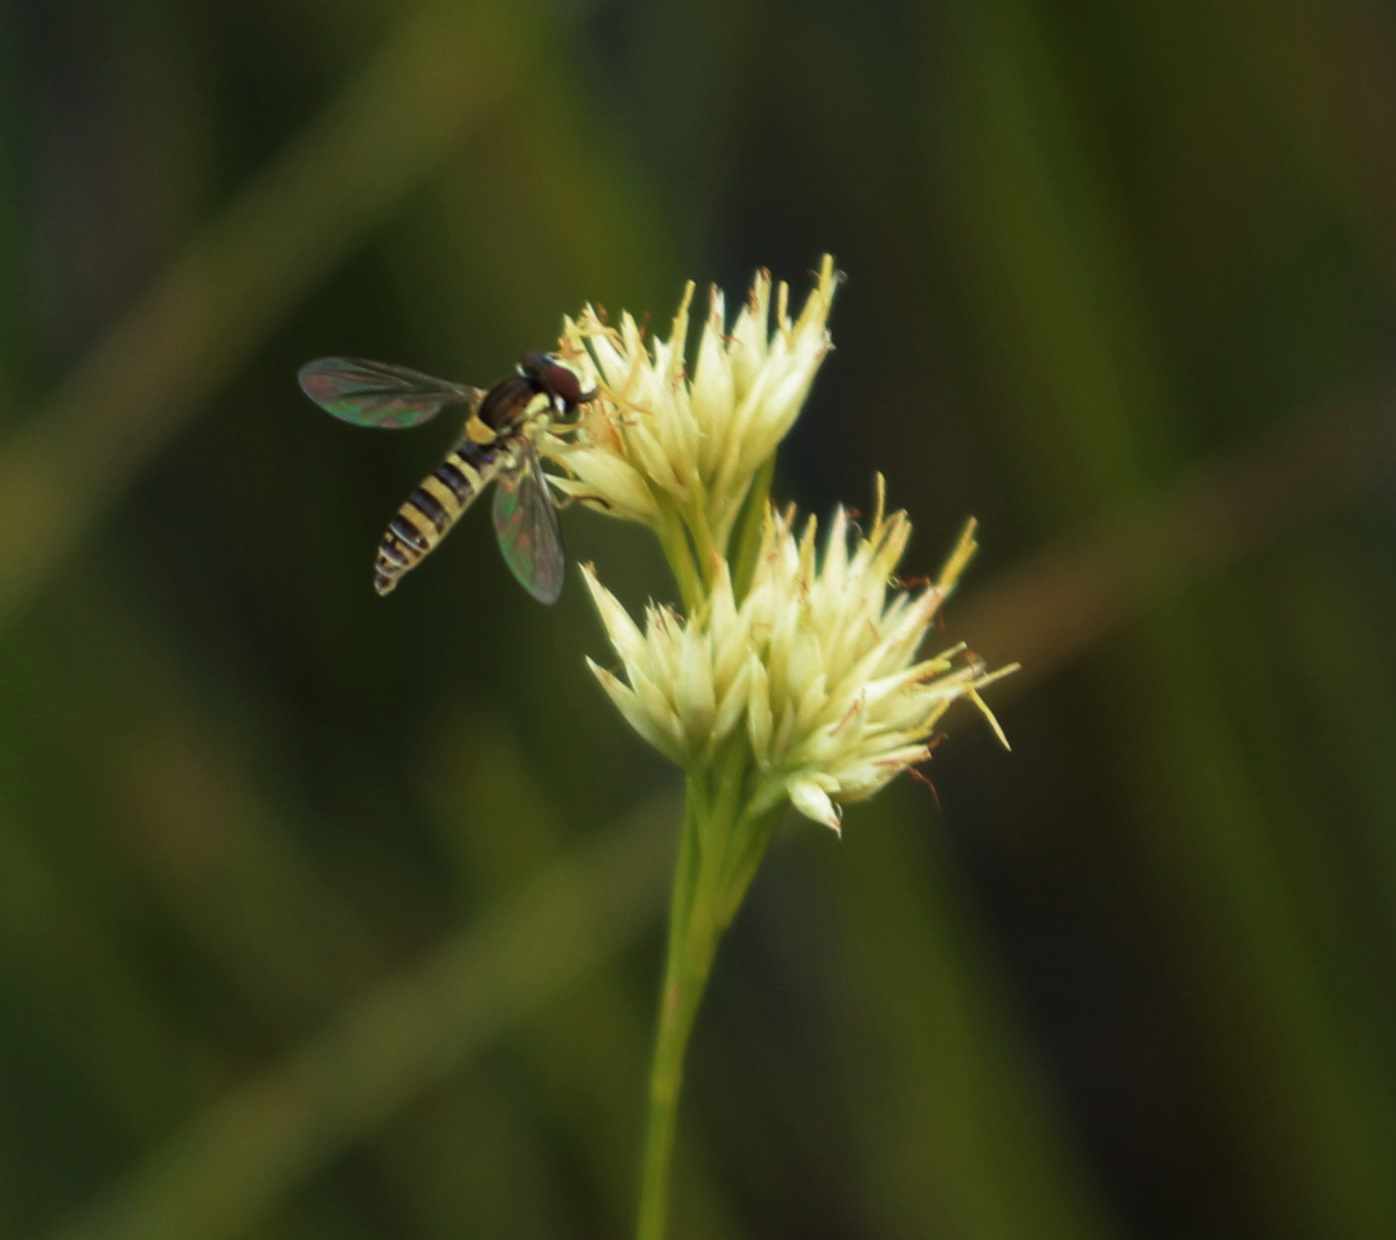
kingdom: Plantae
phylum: Tracheophyta
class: Liliopsida
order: Poales
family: Cyperaceae
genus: Rhynchospora
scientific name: Rhynchospora alba
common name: White beak-sedge
